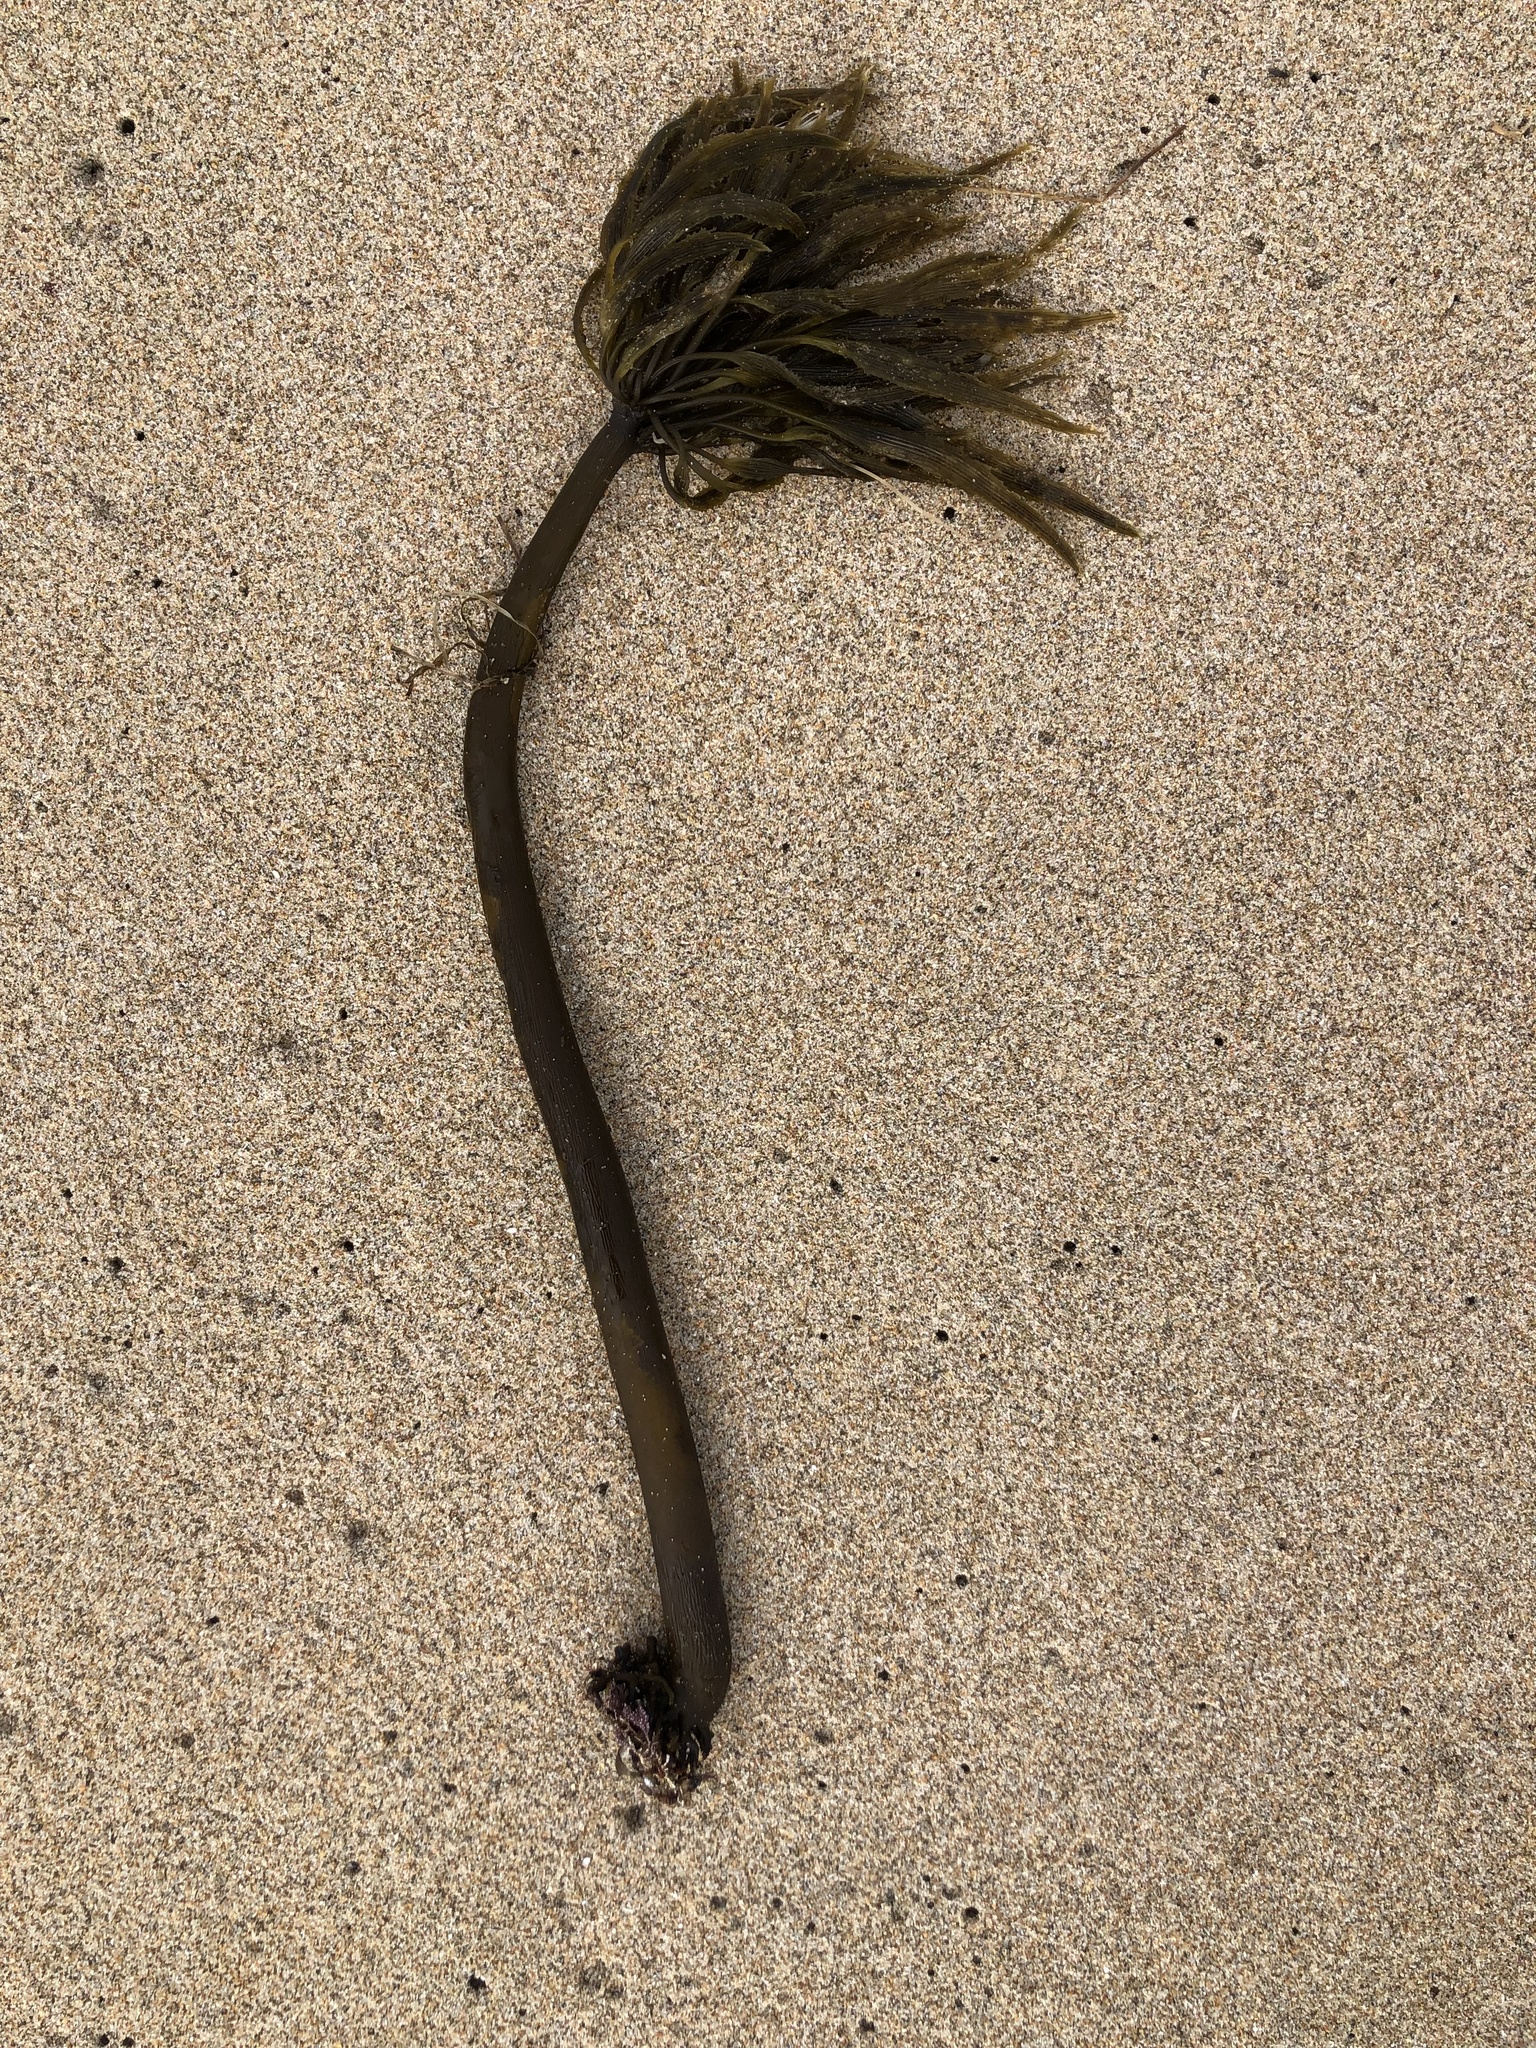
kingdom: Chromista
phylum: Ochrophyta
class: Phaeophyceae
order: Laminariales
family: Laminariaceae
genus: Postelsia
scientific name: Postelsia palmiformis
